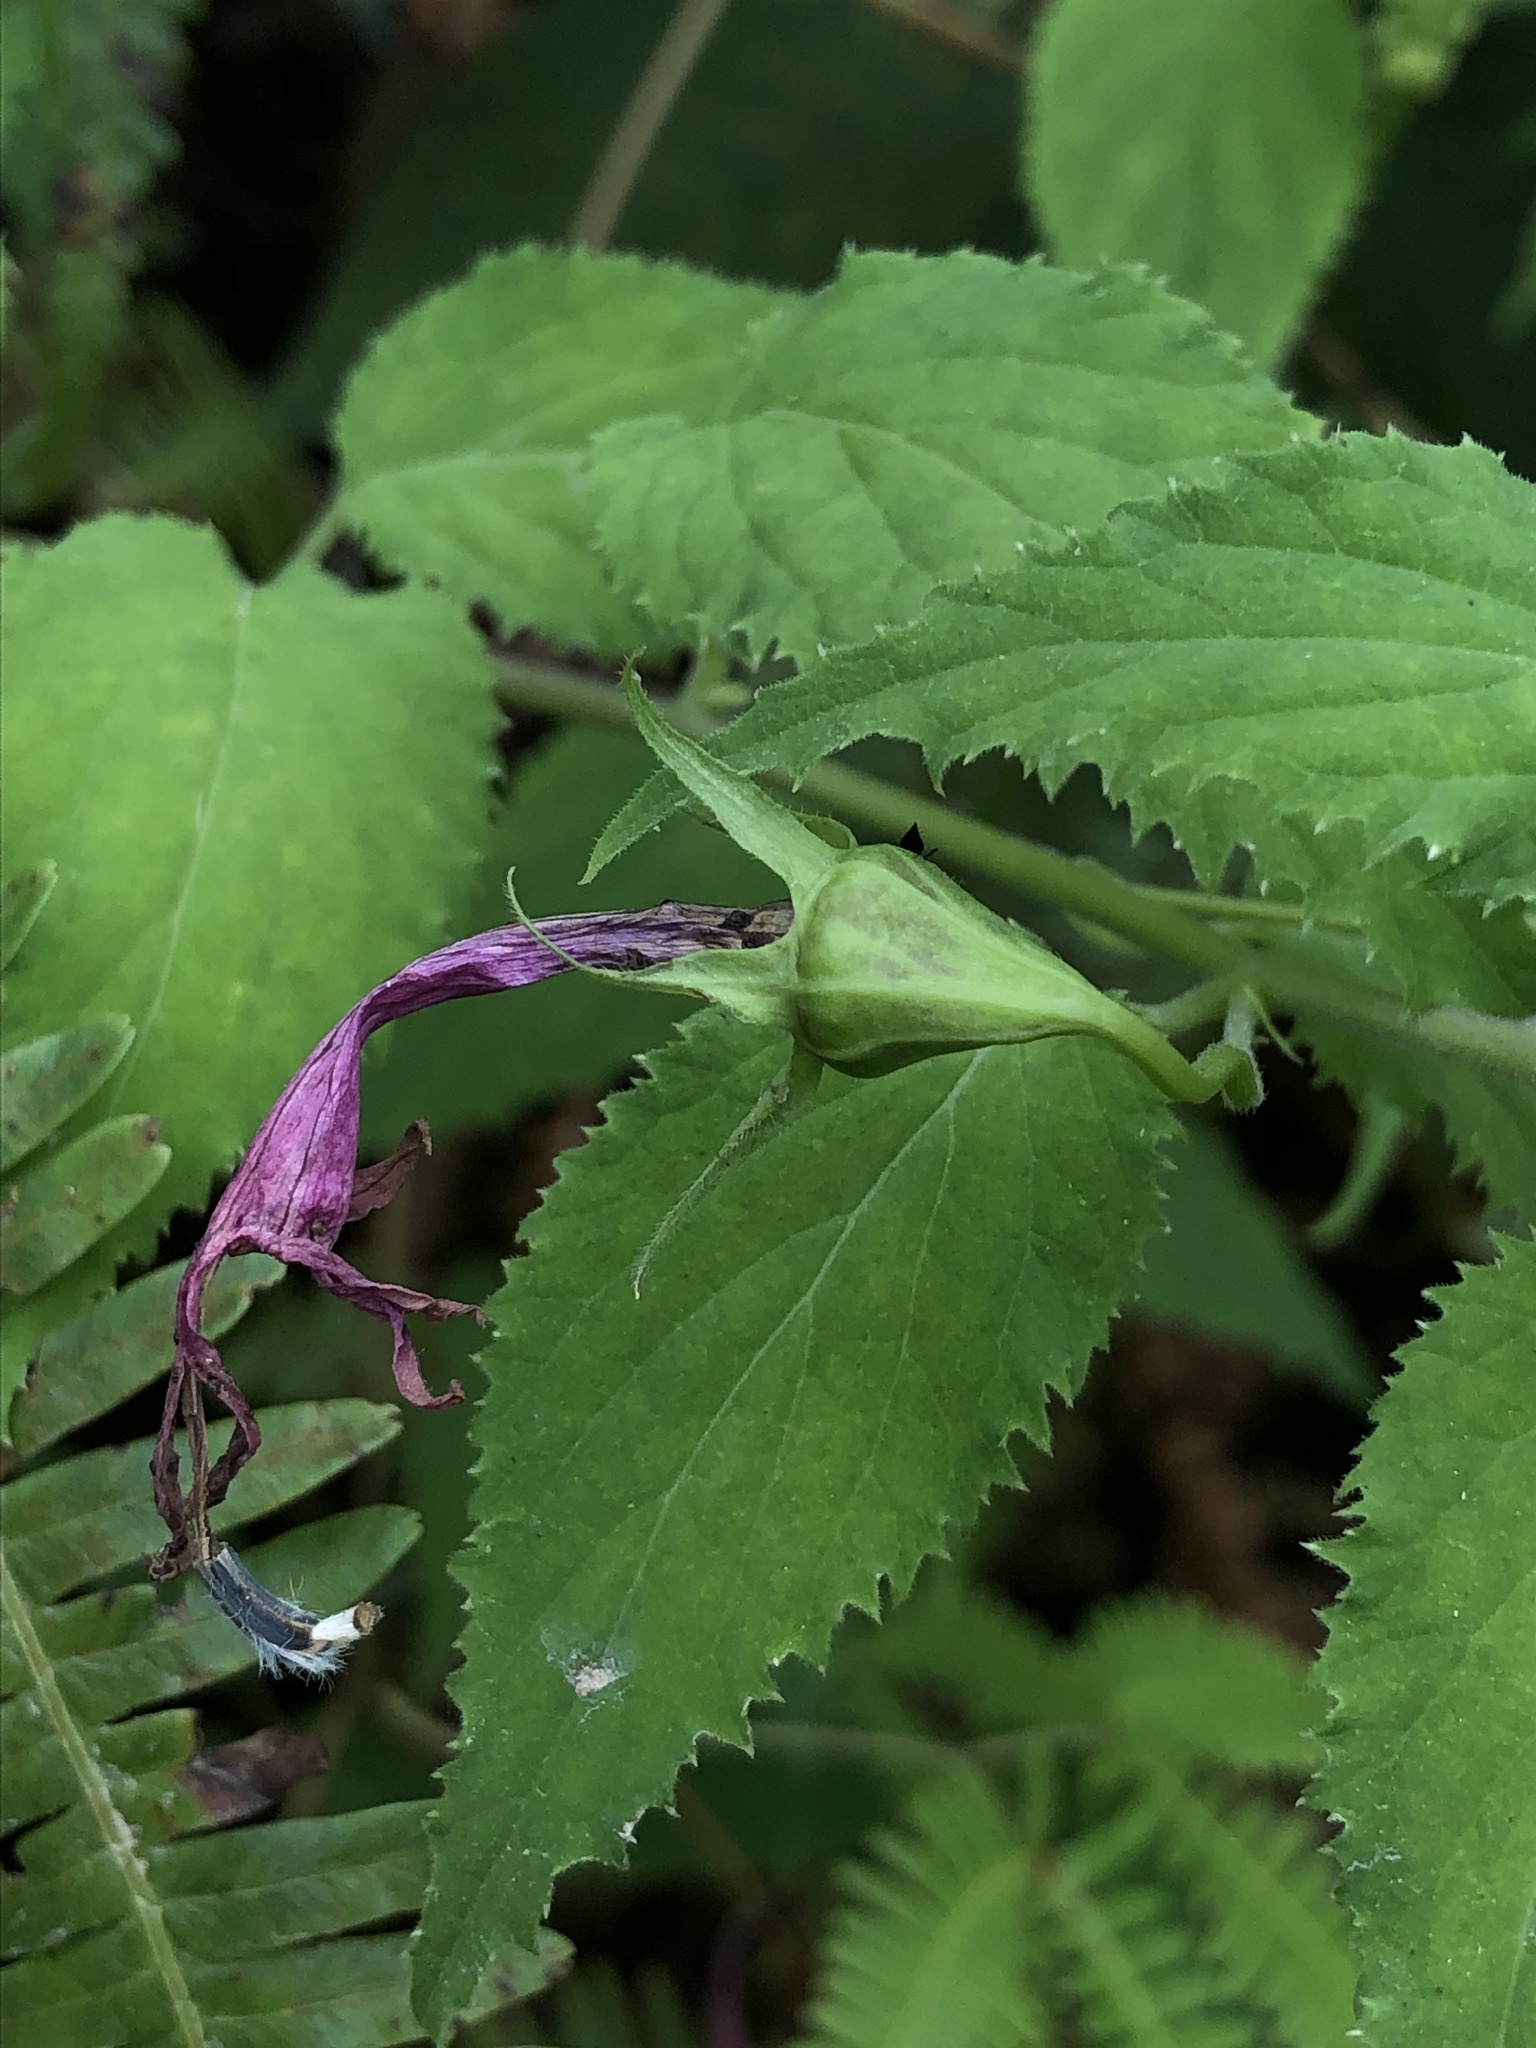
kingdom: Plantae
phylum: Tracheophyta
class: Magnoliopsida
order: Asterales
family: Campanulaceae
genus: Siphocampylus
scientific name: Siphocampylus cordatus
